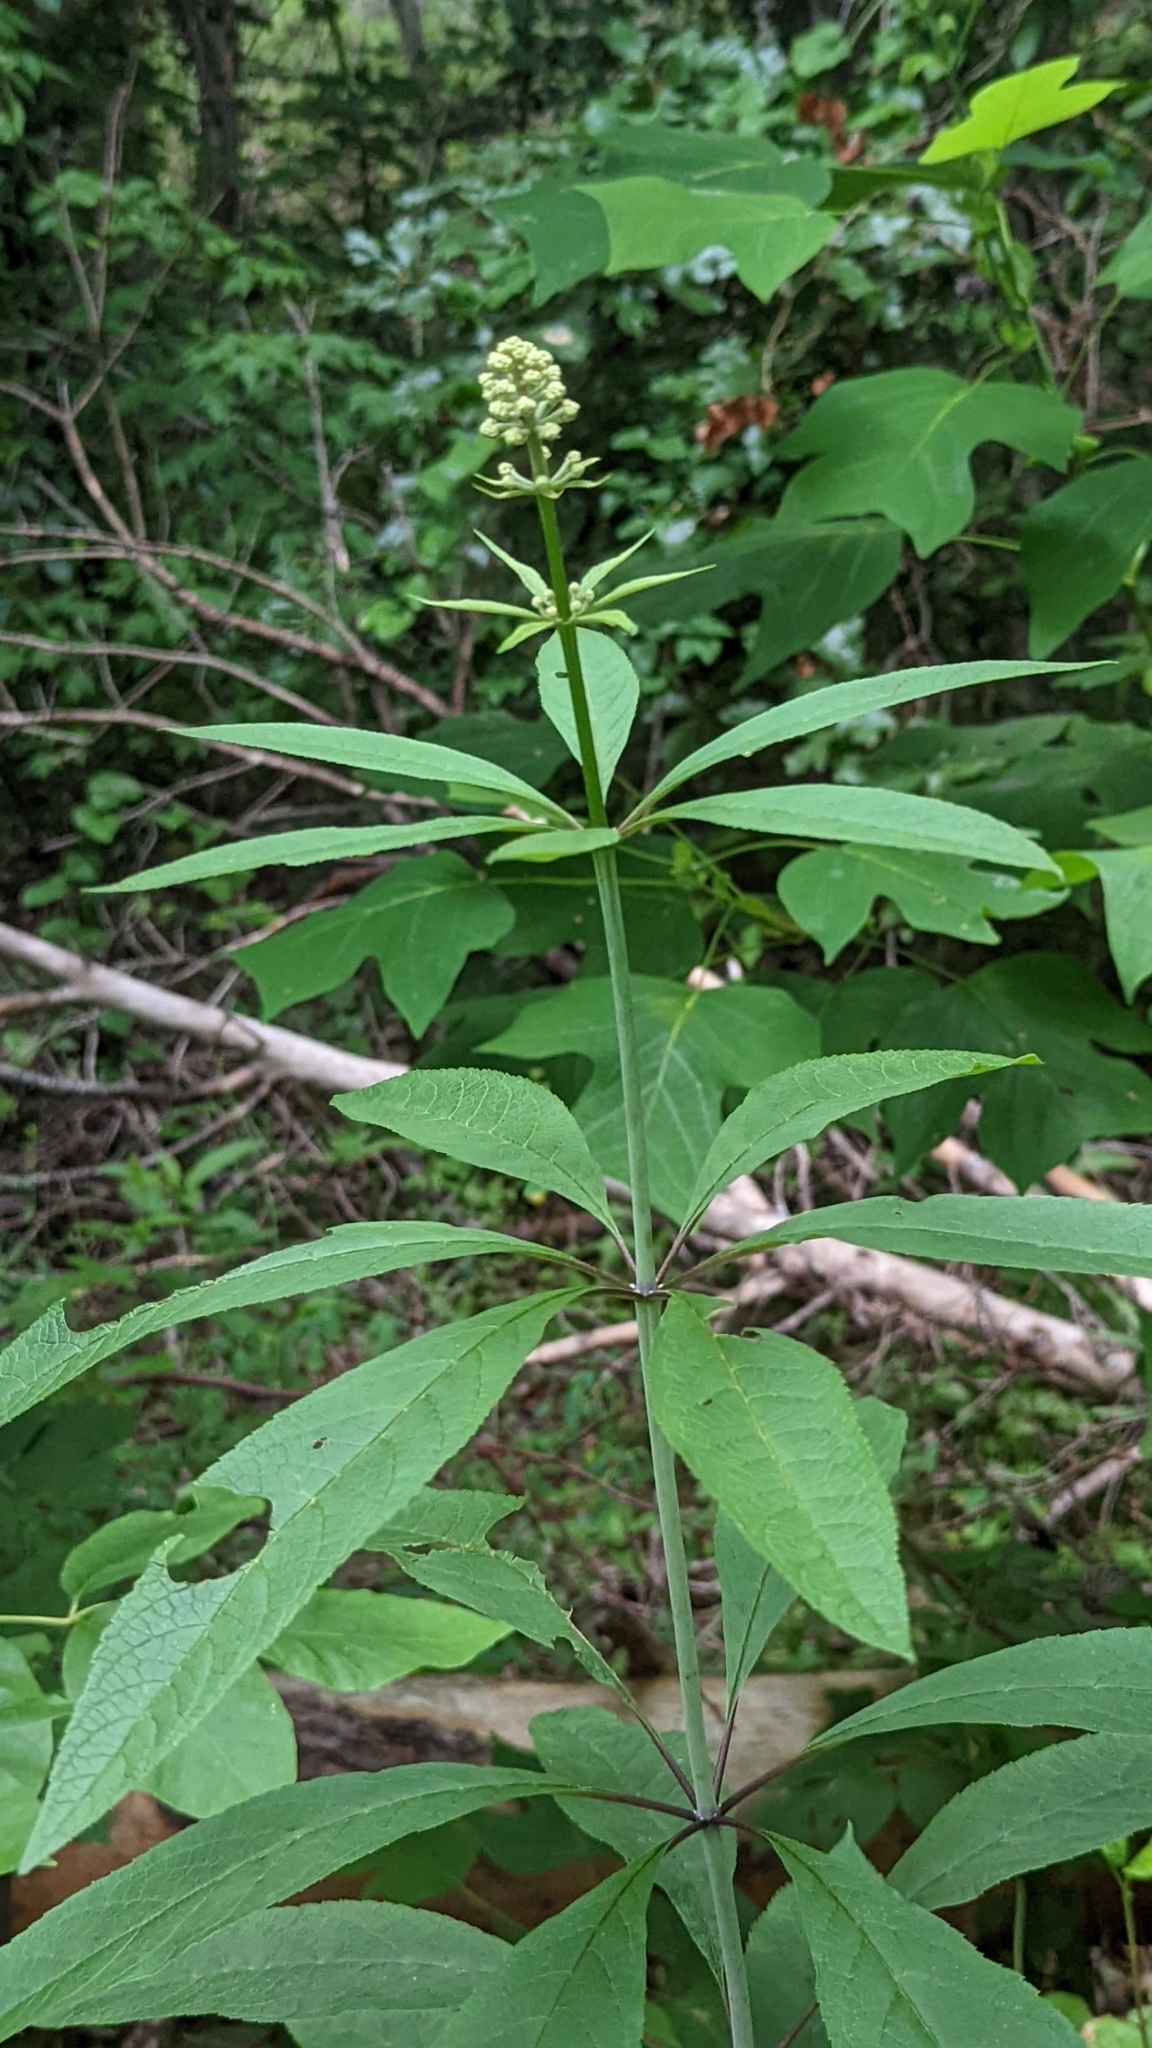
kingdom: Plantae
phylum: Tracheophyta
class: Magnoliopsida
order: Asterales
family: Asteraceae
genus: Eutrochium
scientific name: Eutrochium fistulosum
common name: Trumpetweed
